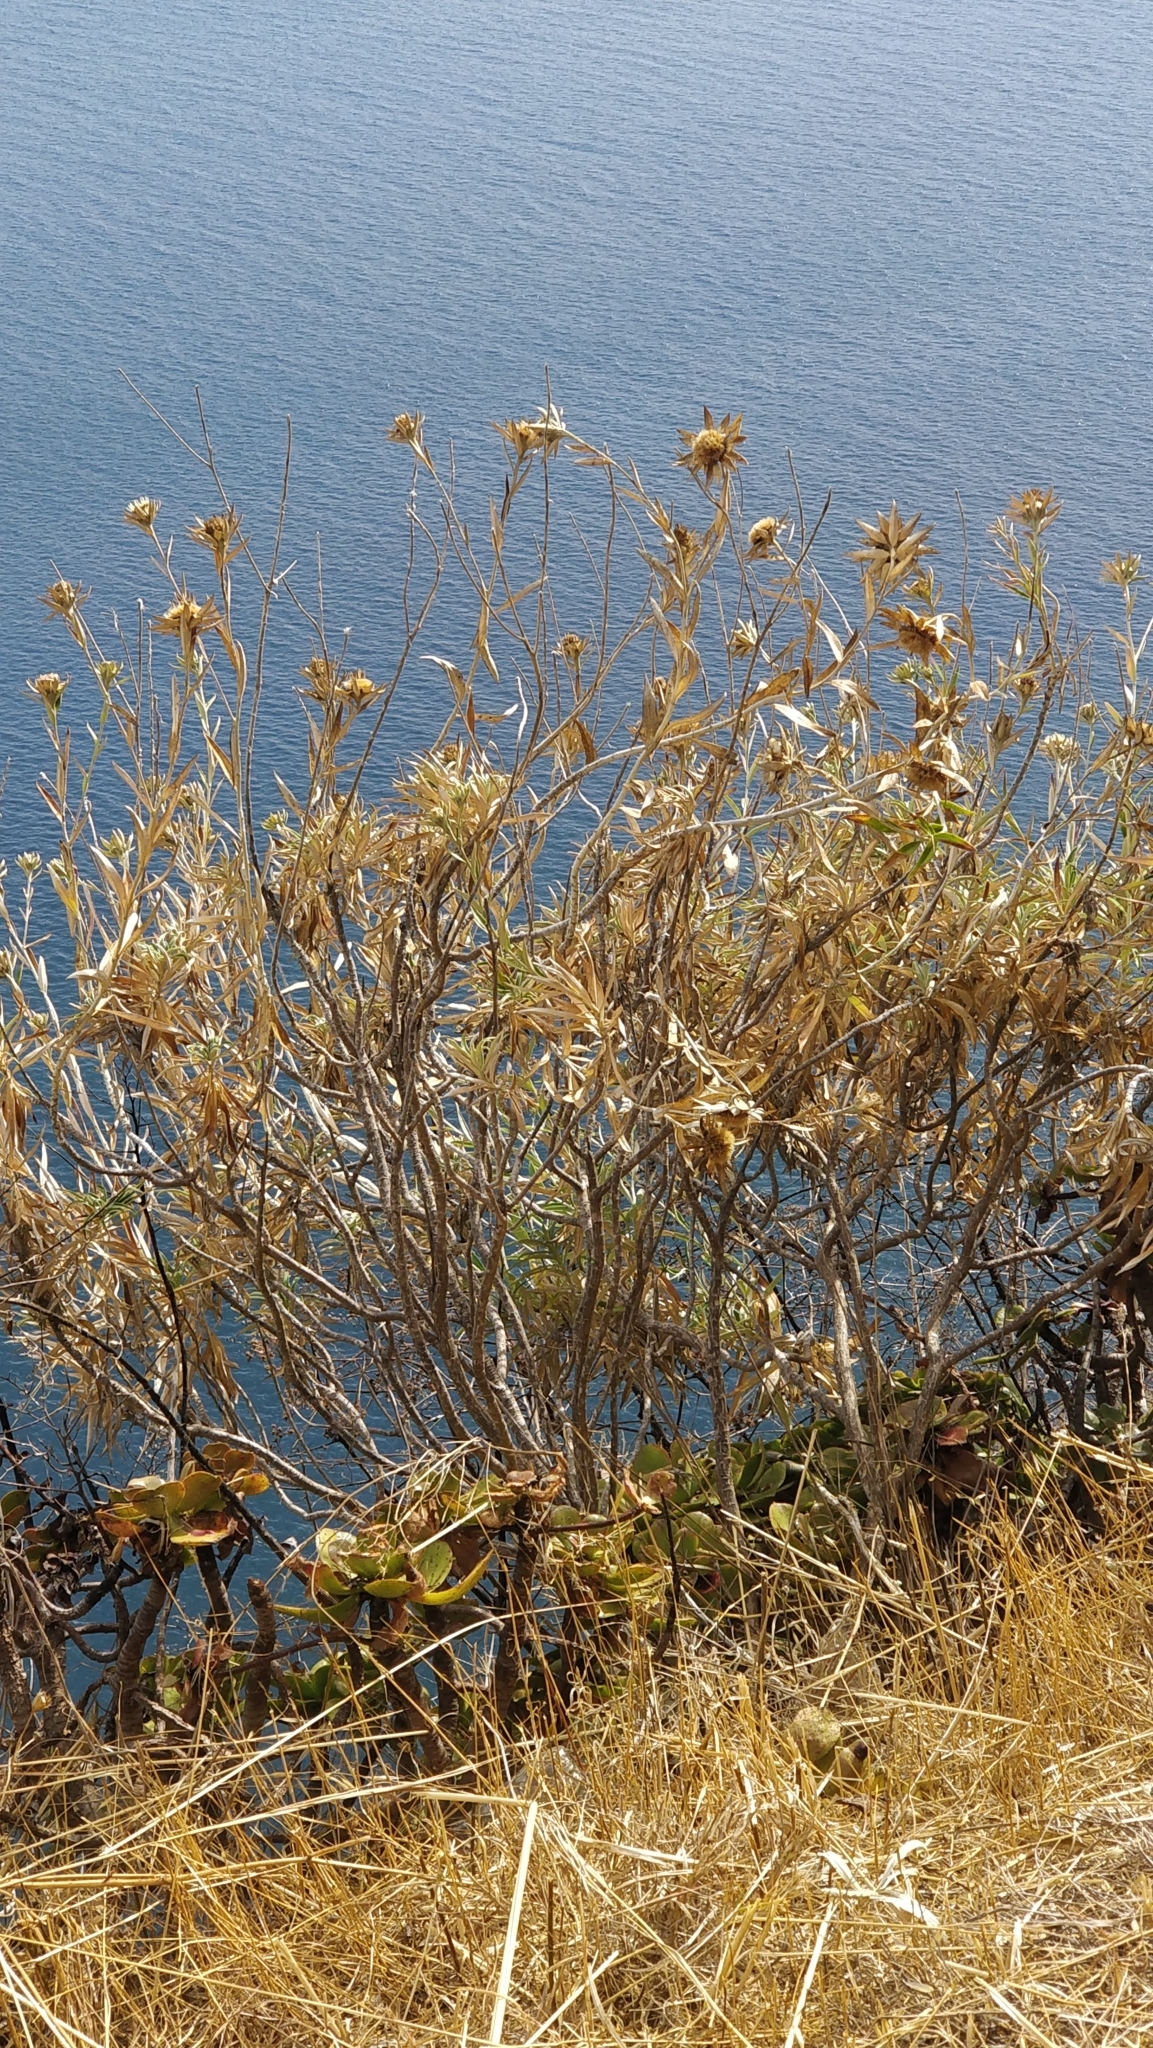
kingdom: Plantae
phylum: Tracheophyta
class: Magnoliopsida
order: Asterales
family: Asteraceae
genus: Carlina
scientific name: Carlina salicifolia
